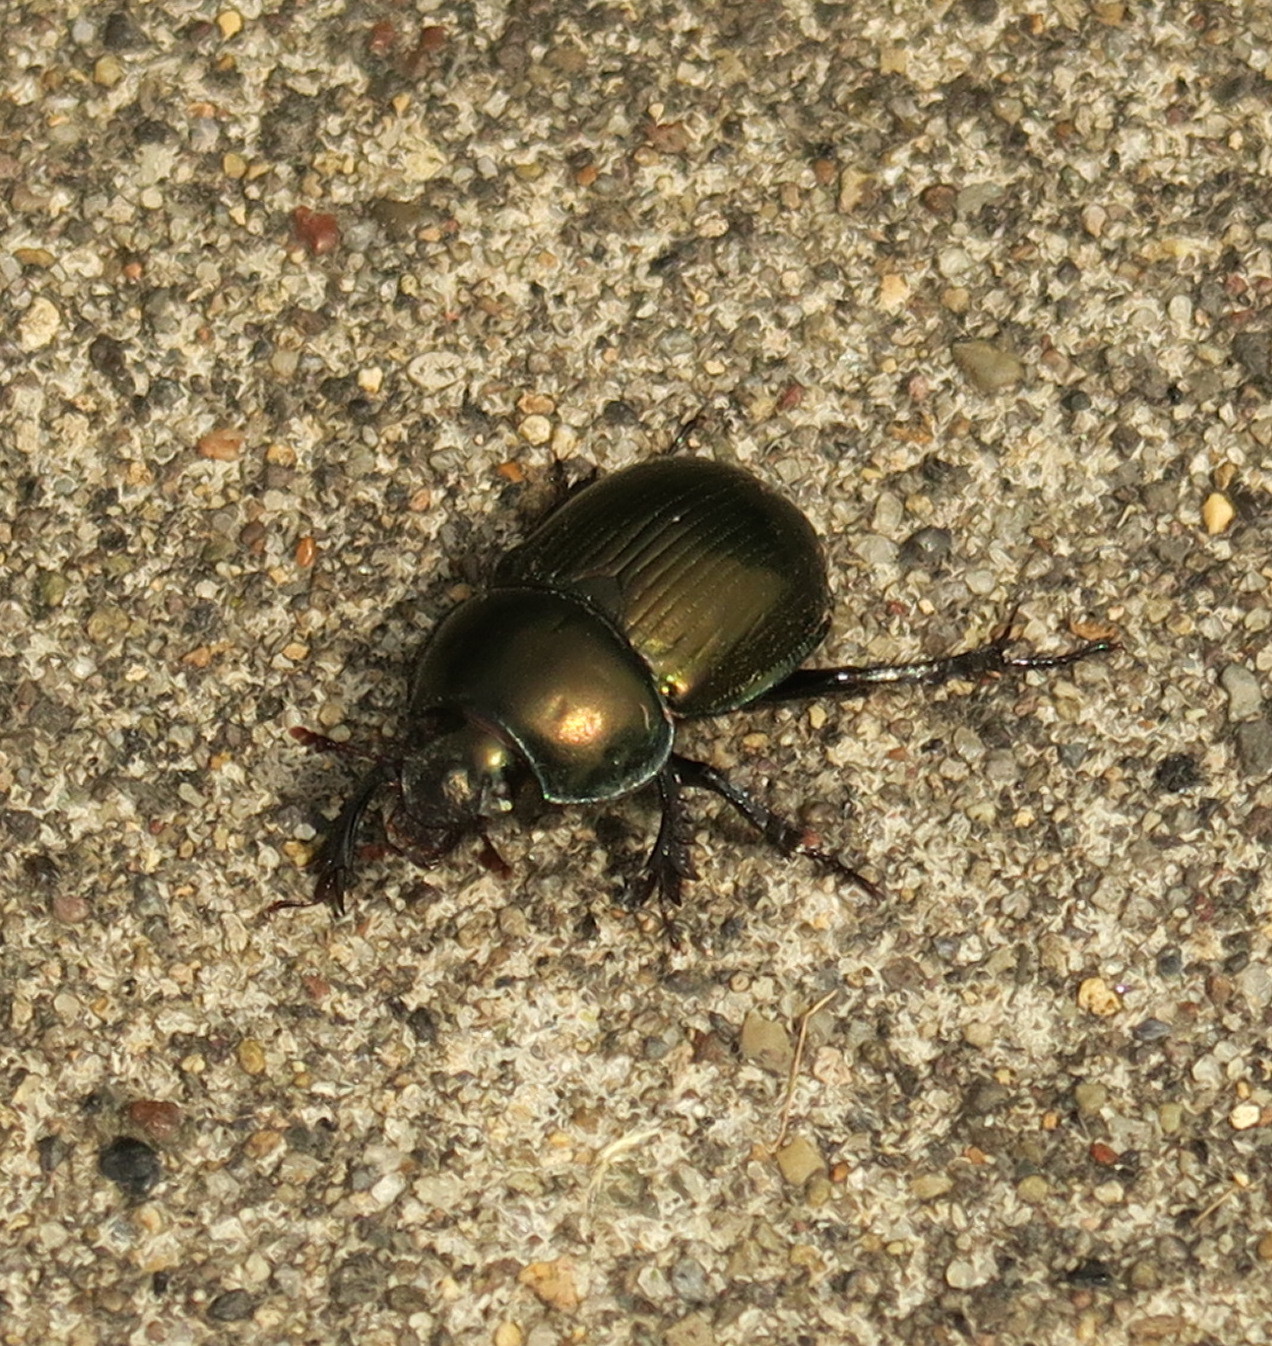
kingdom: Animalia
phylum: Arthropoda
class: Insecta
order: Coleoptera
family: Geotrupidae
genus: Phelotrupes
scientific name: Phelotrupes laevistriatus
